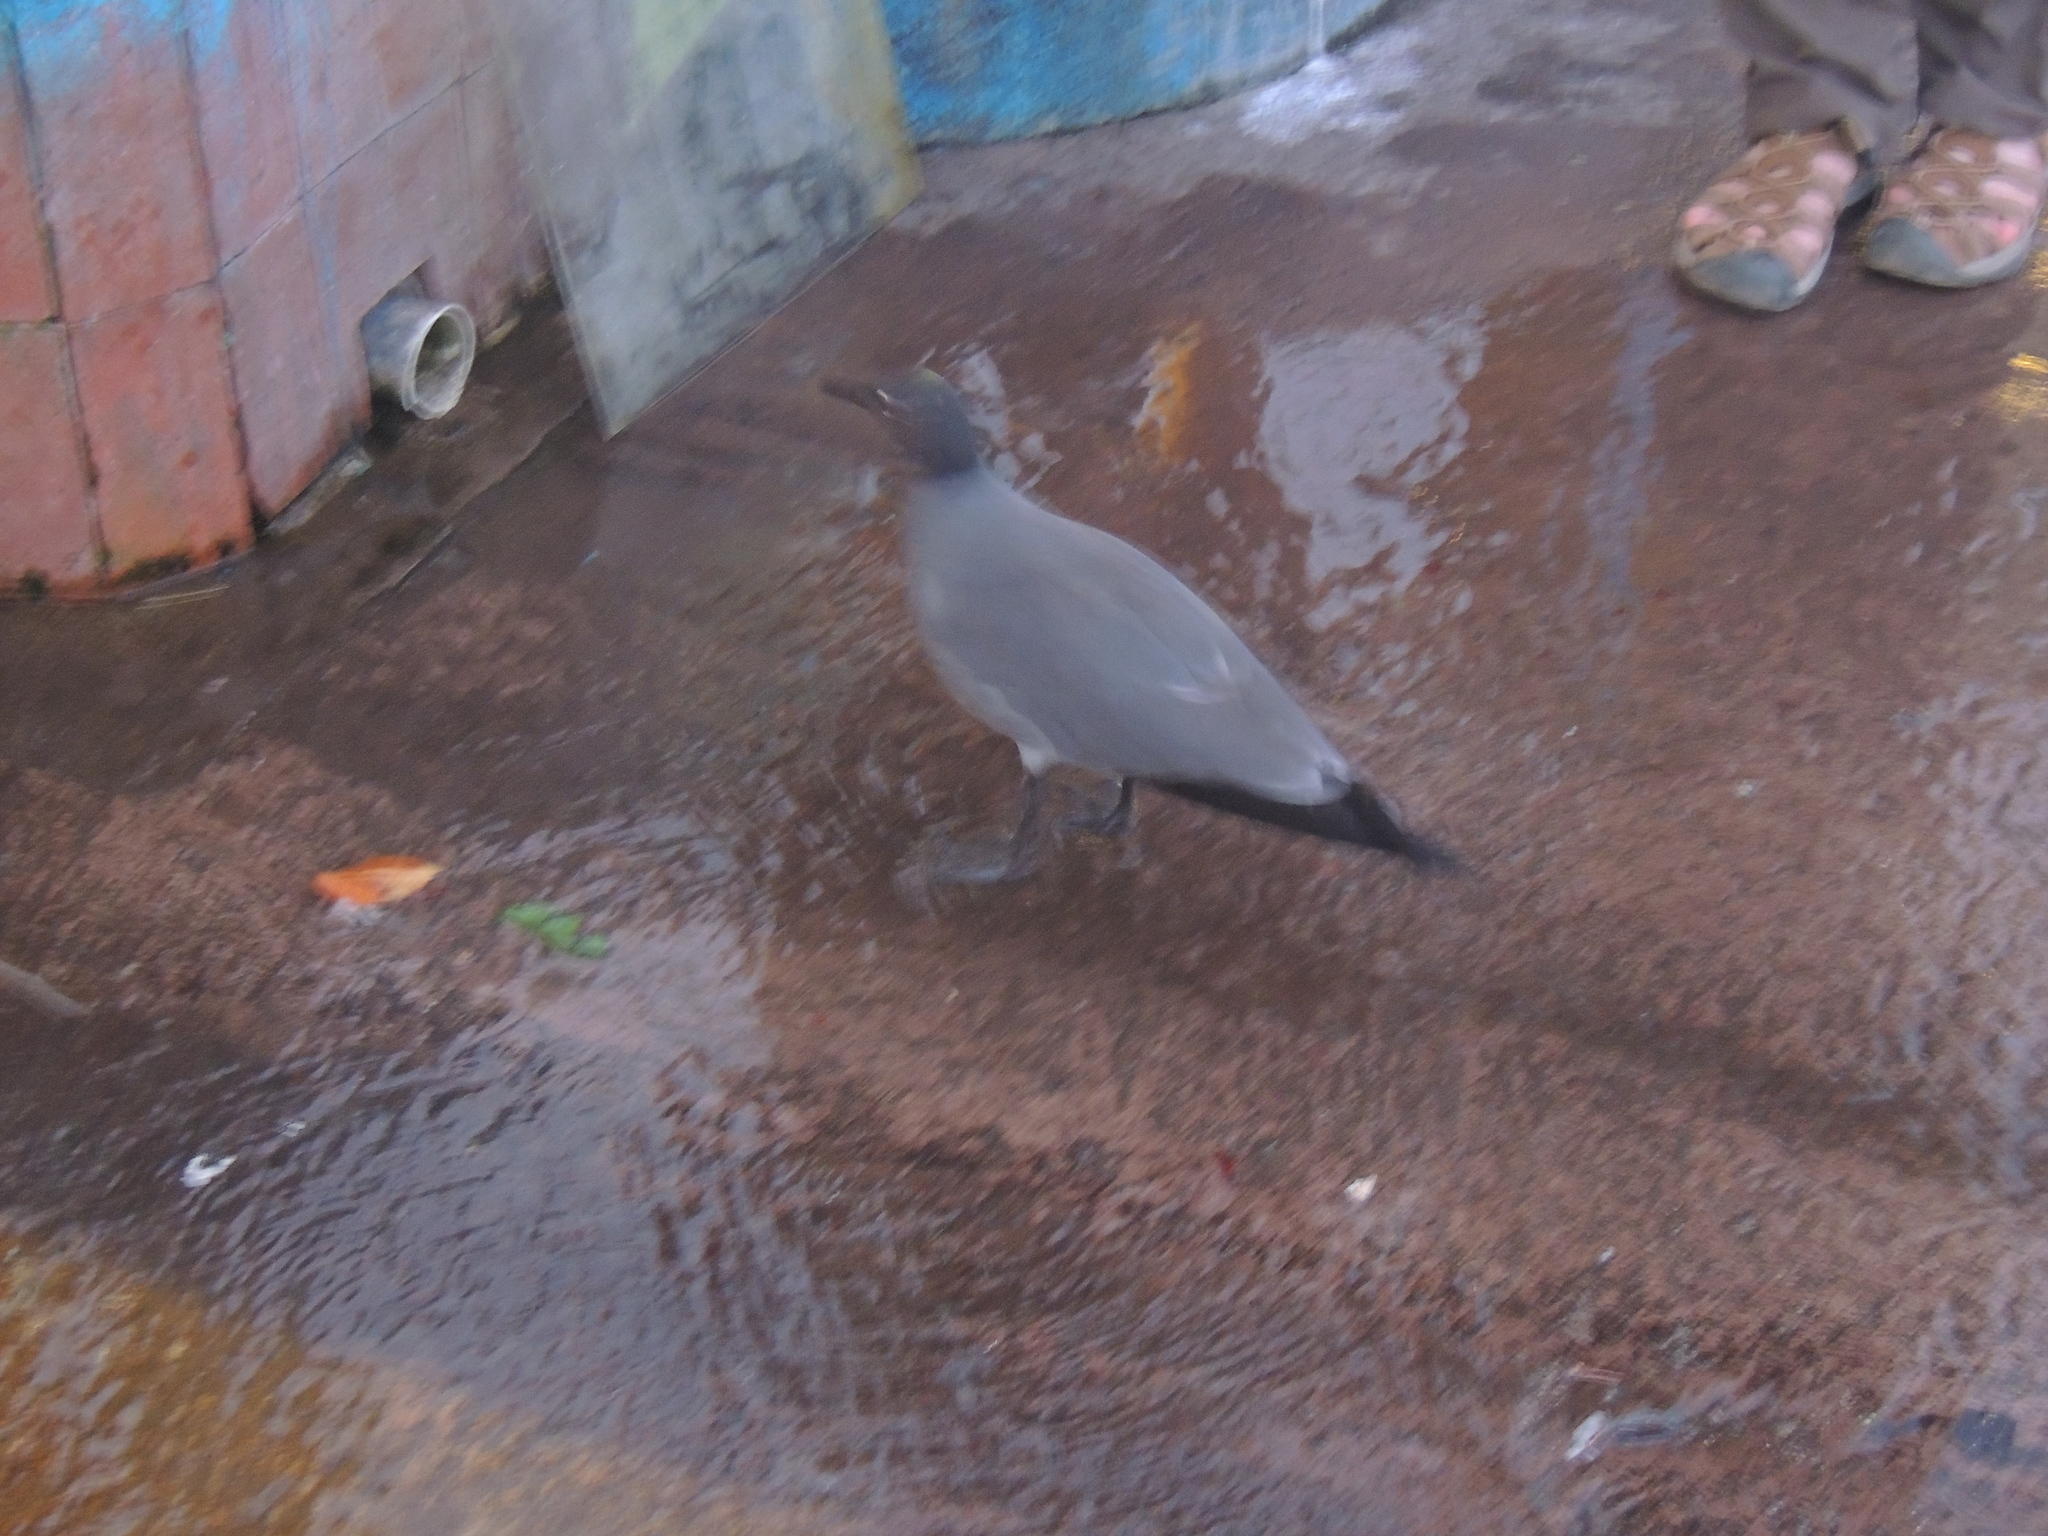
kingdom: Animalia
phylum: Chordata
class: Aves
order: Charadriiformes
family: Laridae
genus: Leucophaeus
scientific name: Leucophaeus fuliginosus
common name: Lava gull
